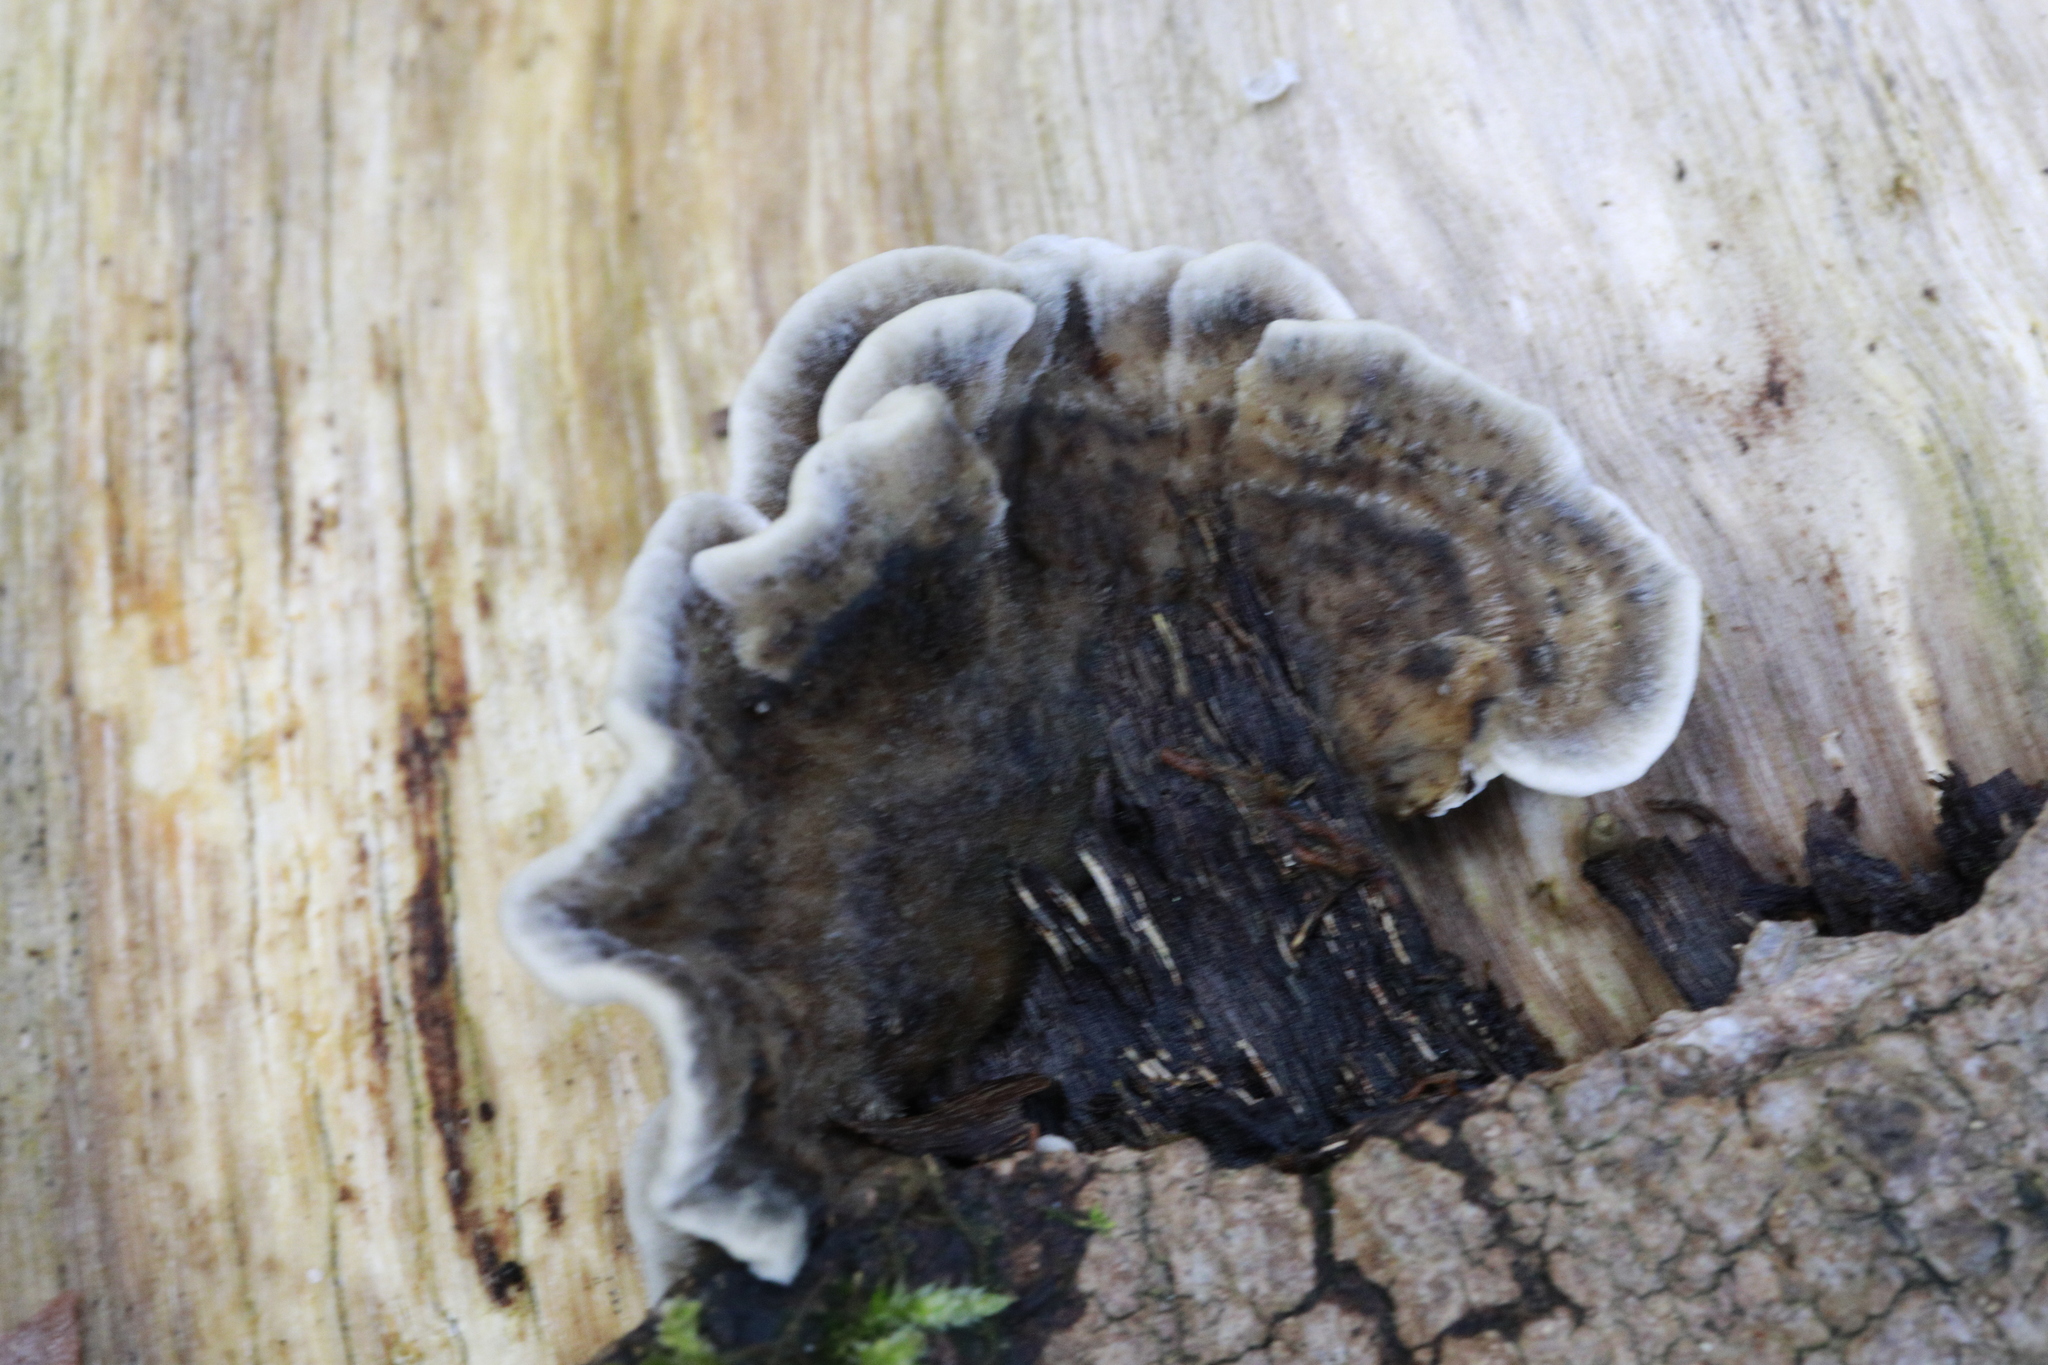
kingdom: Fungi
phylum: Basidiomycota
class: Agaricomycetes
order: Polyporales
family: Phanerochaetaceae
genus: Bjerkandera
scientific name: Bjerkandera adusta
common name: Smoky bracket
